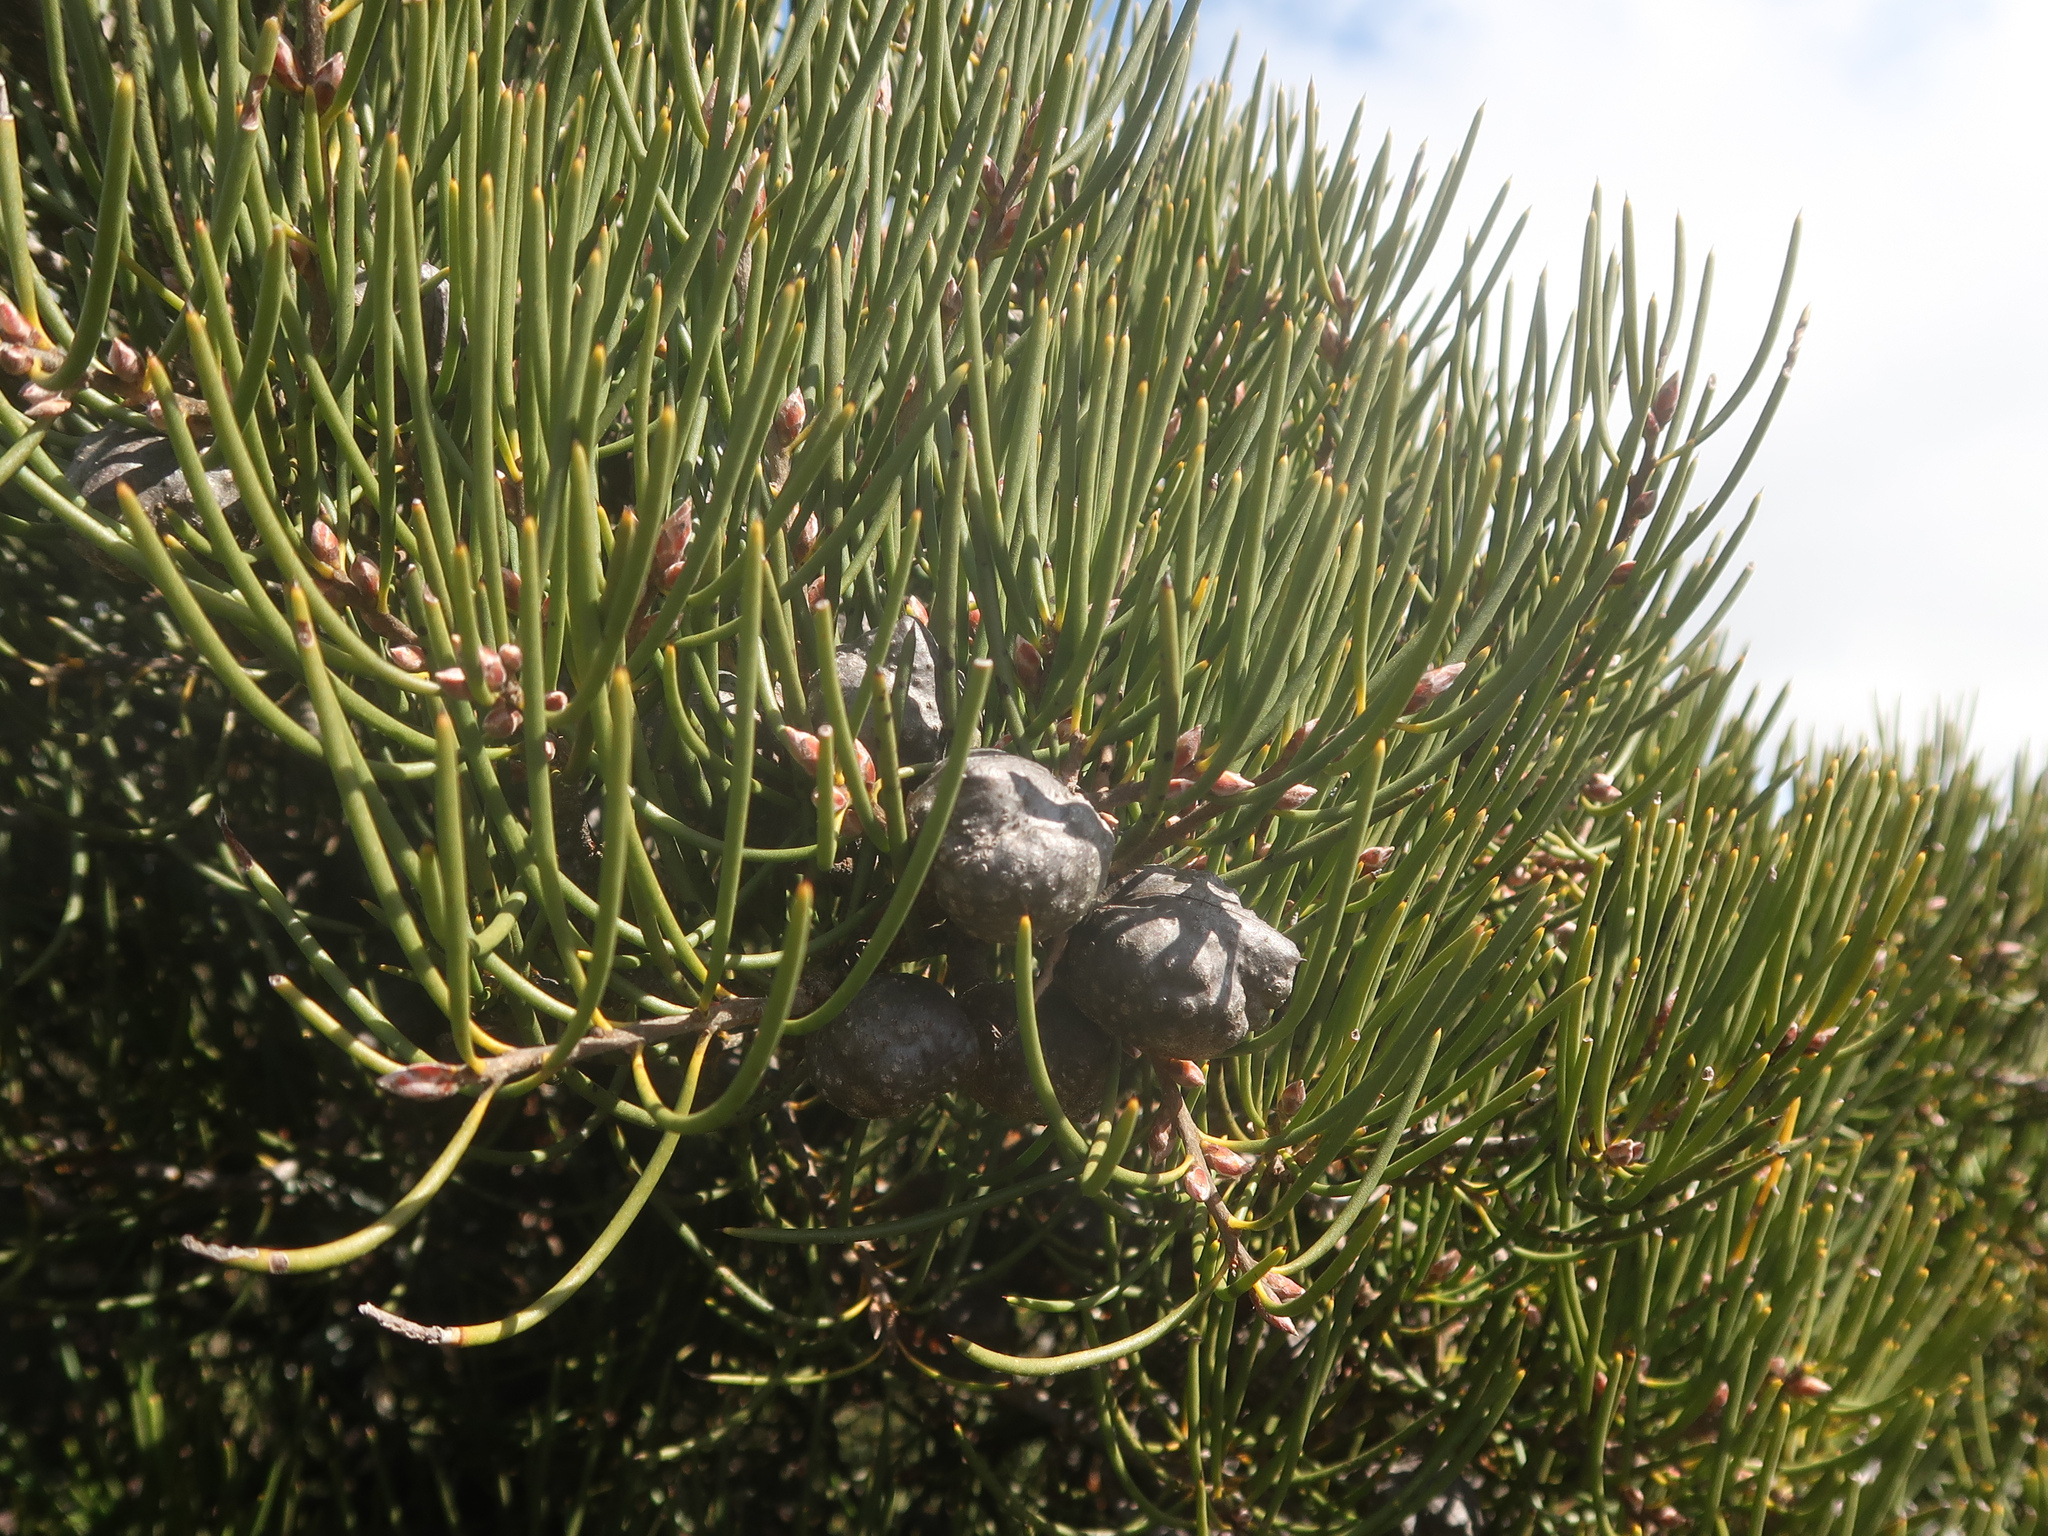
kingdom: Plantae
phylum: Tracheophyta
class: Magnoliopsida
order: Proteales
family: Proteaceae
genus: Hakea
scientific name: Hakea lissosperma
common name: Mountain needlewood
